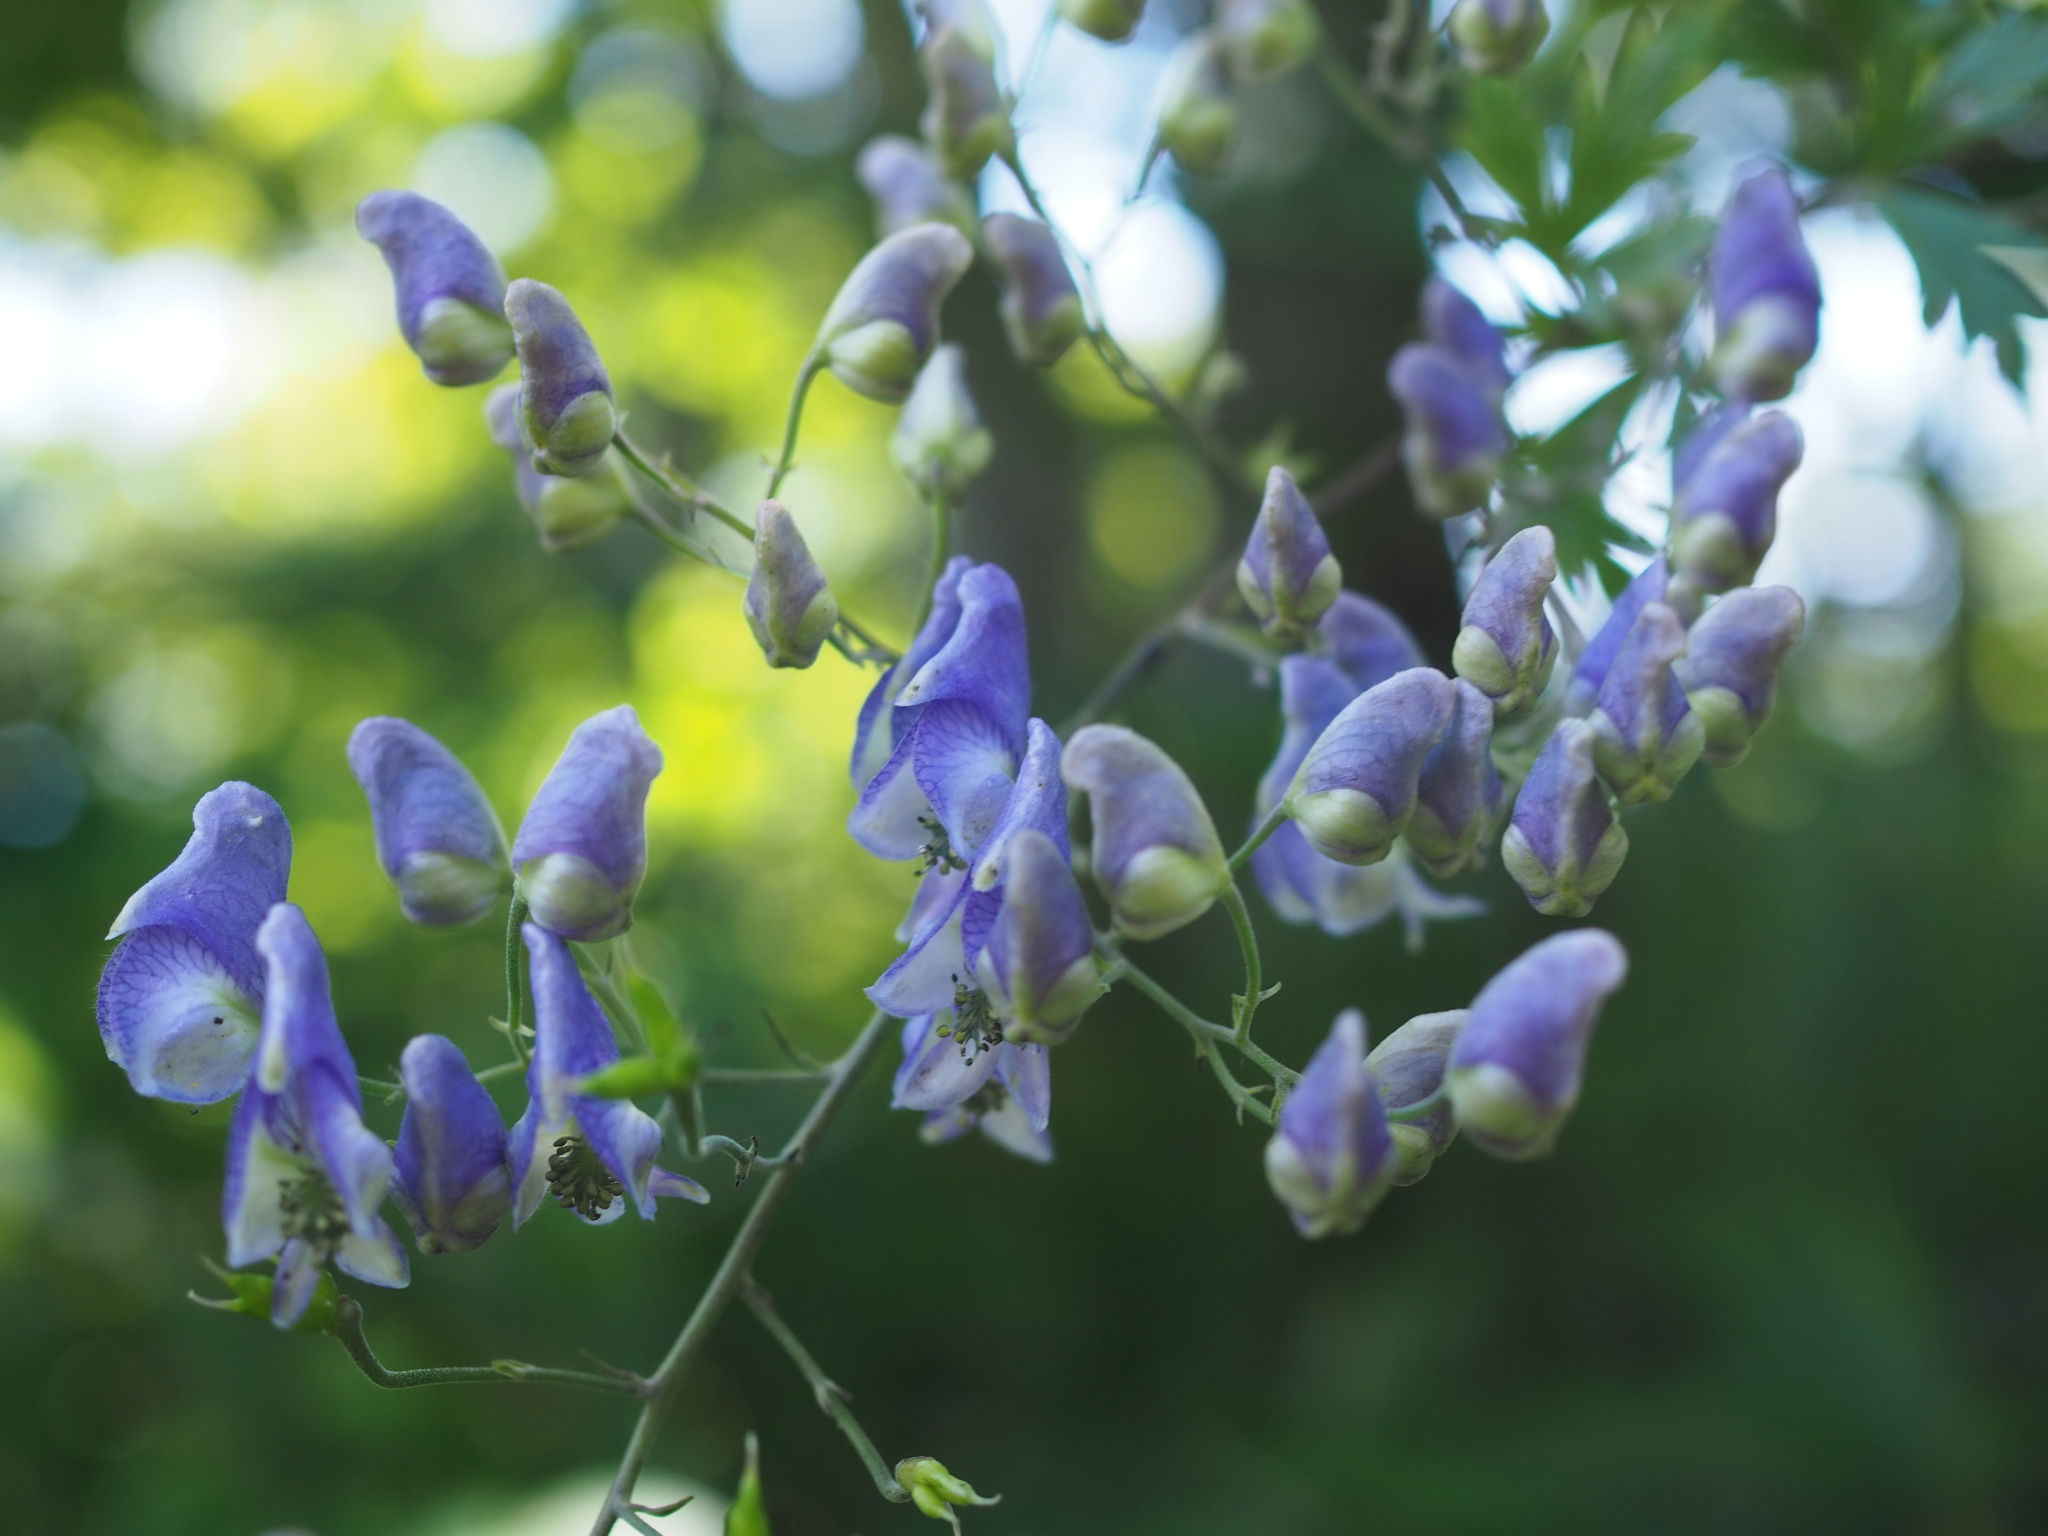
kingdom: Plantae
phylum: Tracheophyta
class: Magnoliopsida
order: Ranunculales
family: Ranunculaceae
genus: Aconitum
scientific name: Aconitum sachalinense
